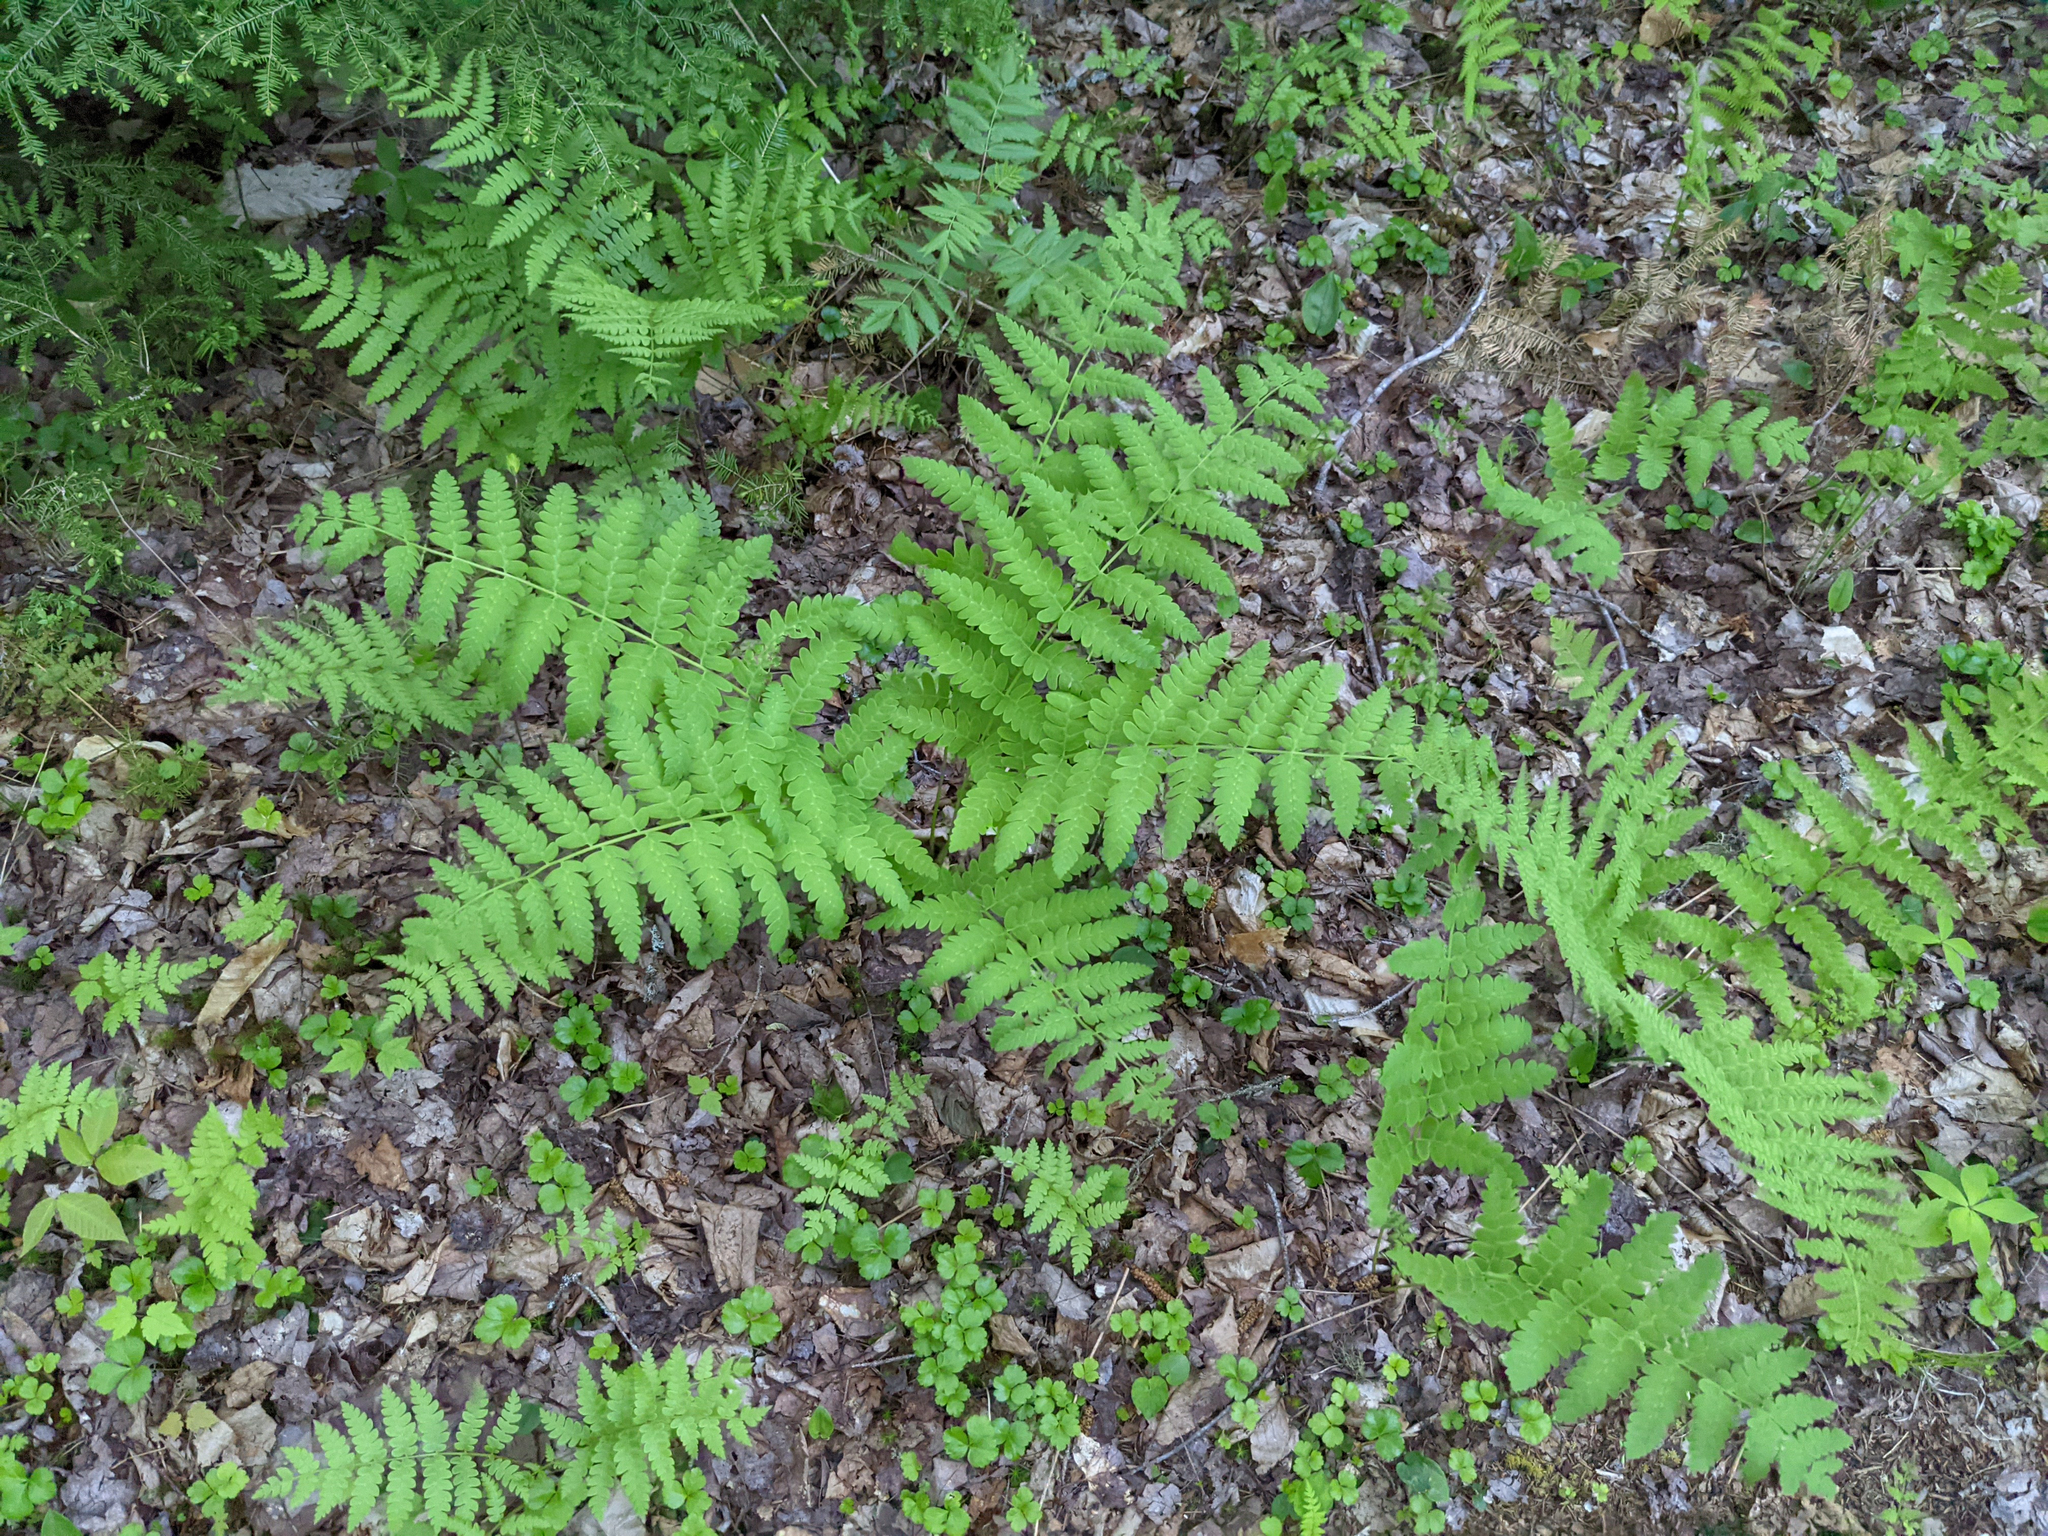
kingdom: Plantae
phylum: Tracheophyta
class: Polypodiopsida
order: Osmundales
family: Osmundaceae
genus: Claytosmunda
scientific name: Claytosmunda claytoniana
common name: Clayton's fern
